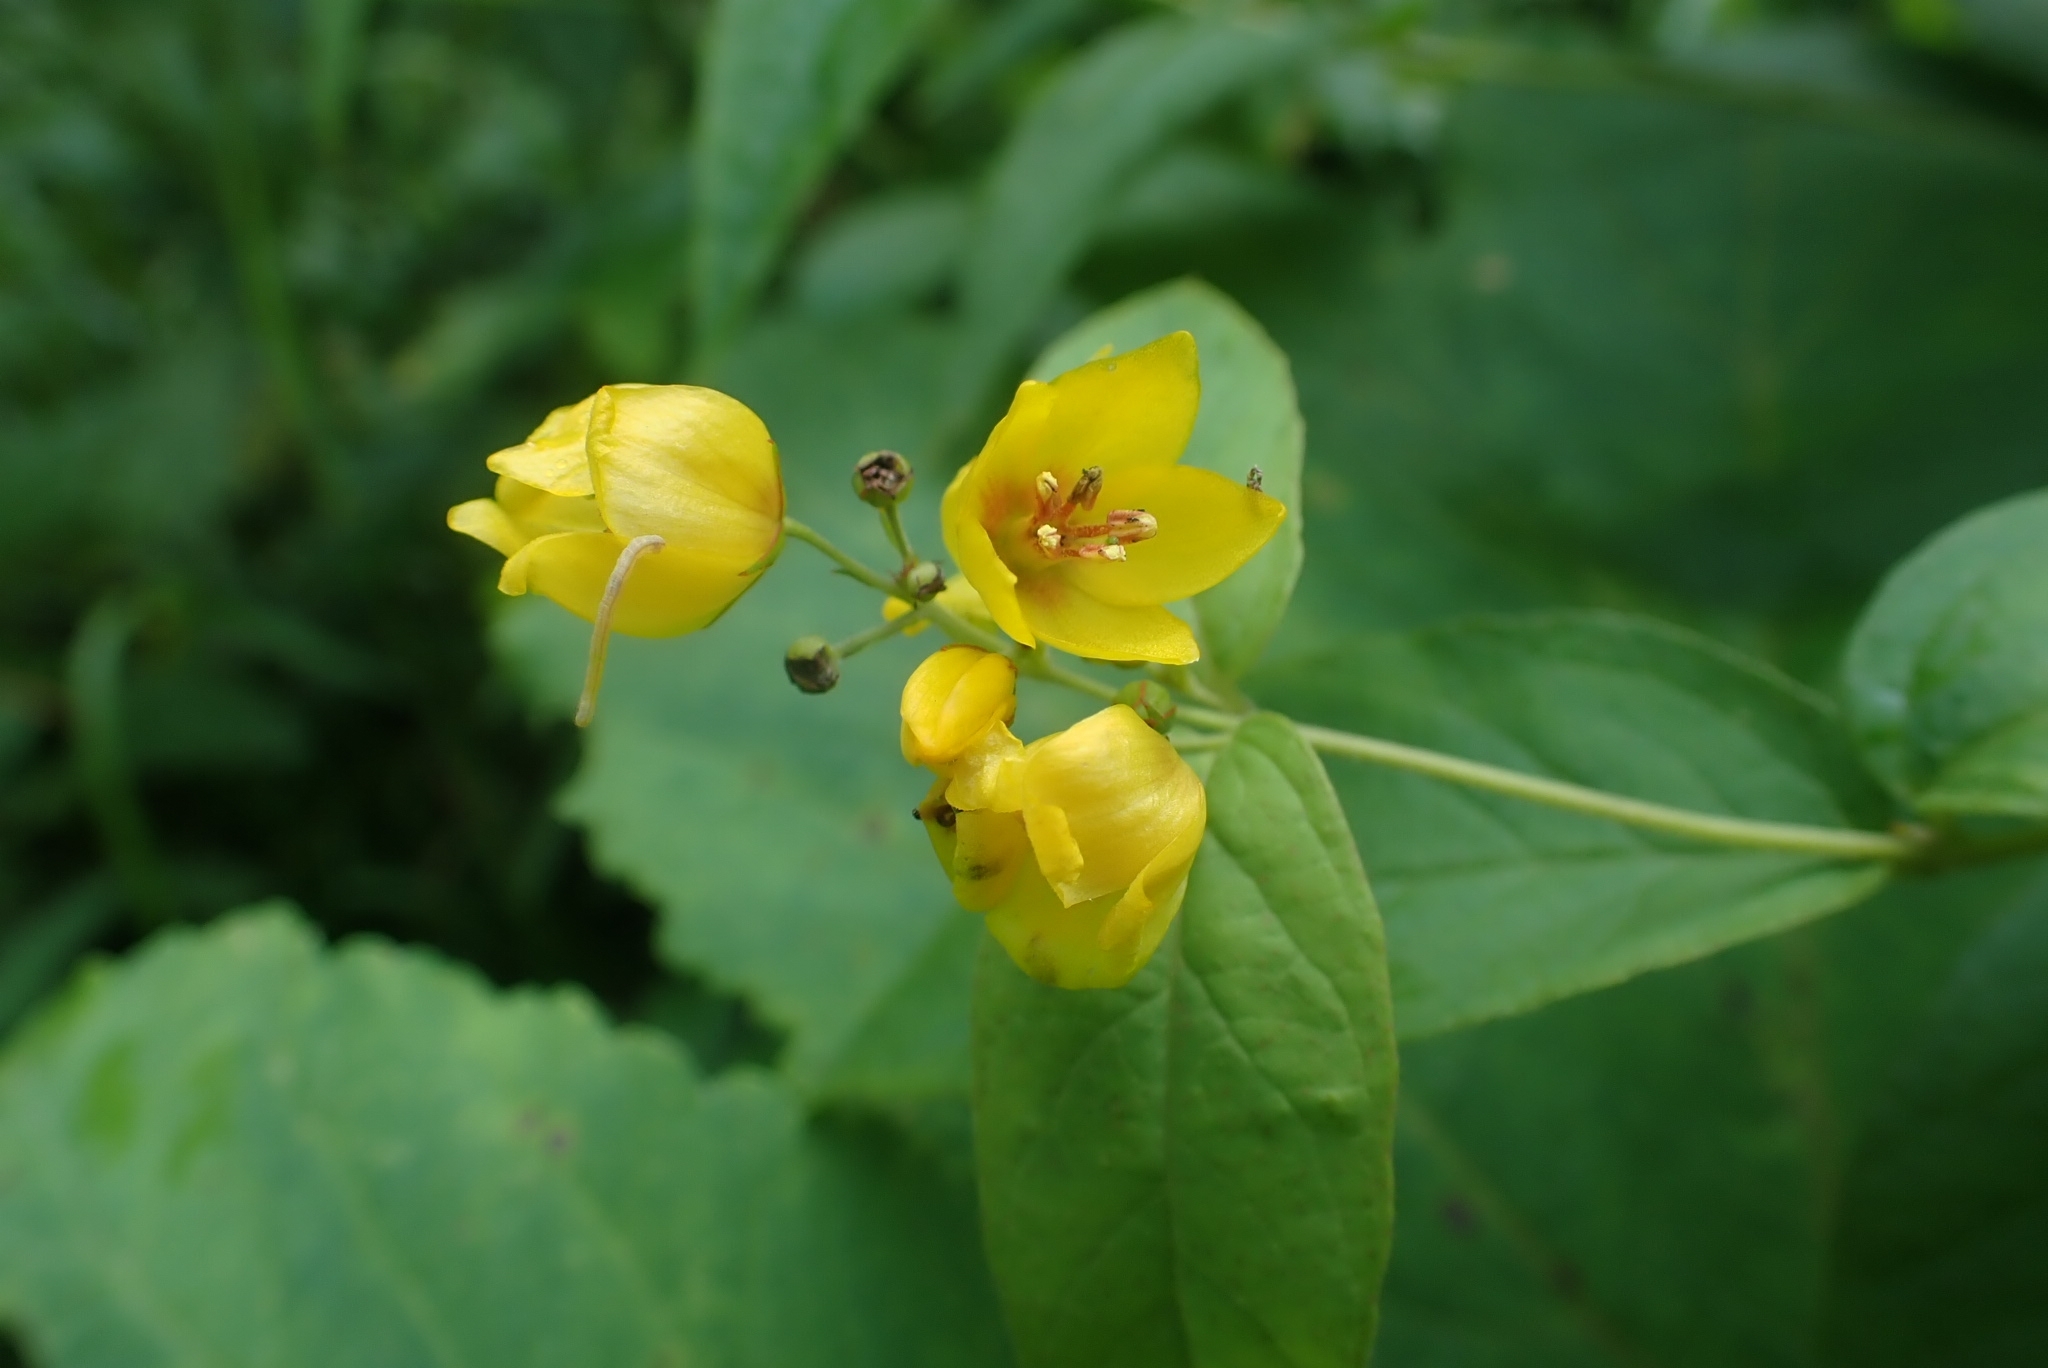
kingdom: Plantae
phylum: Tracheophyta
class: Magnoliopsida
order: Ericales
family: Primulaceae
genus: Lysimachia
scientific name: Lysimachia vulgaris
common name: Yellow loosestrife
